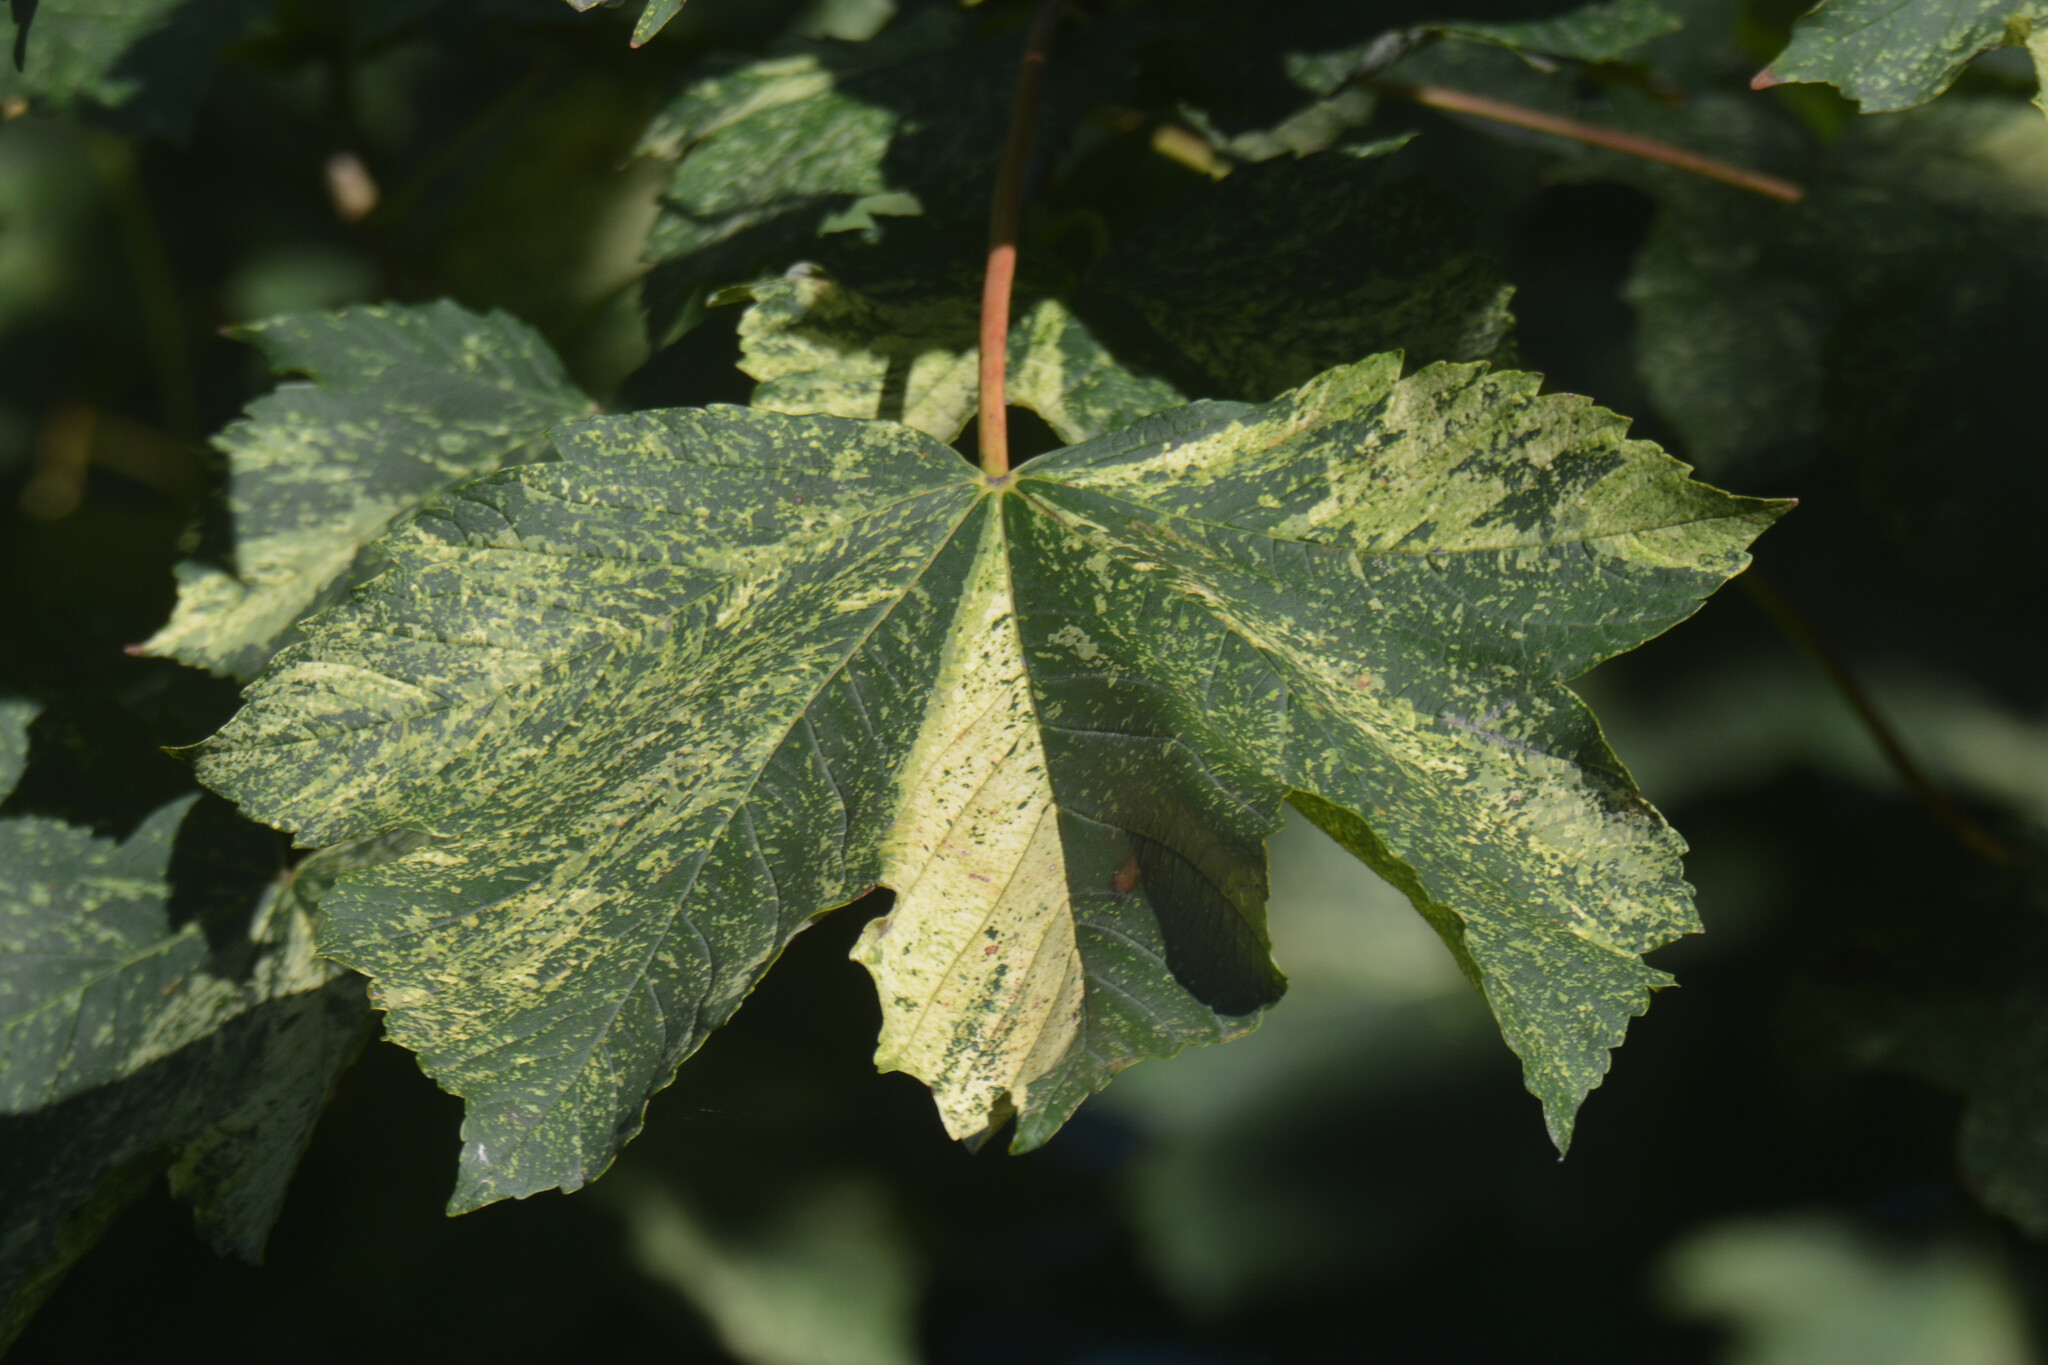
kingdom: Plantae
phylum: Tracheophyta
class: Magnoliopsida
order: Sapindales
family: Sapindaceae
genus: Acer
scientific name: Acer pseudoplatanus
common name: Sycamore
